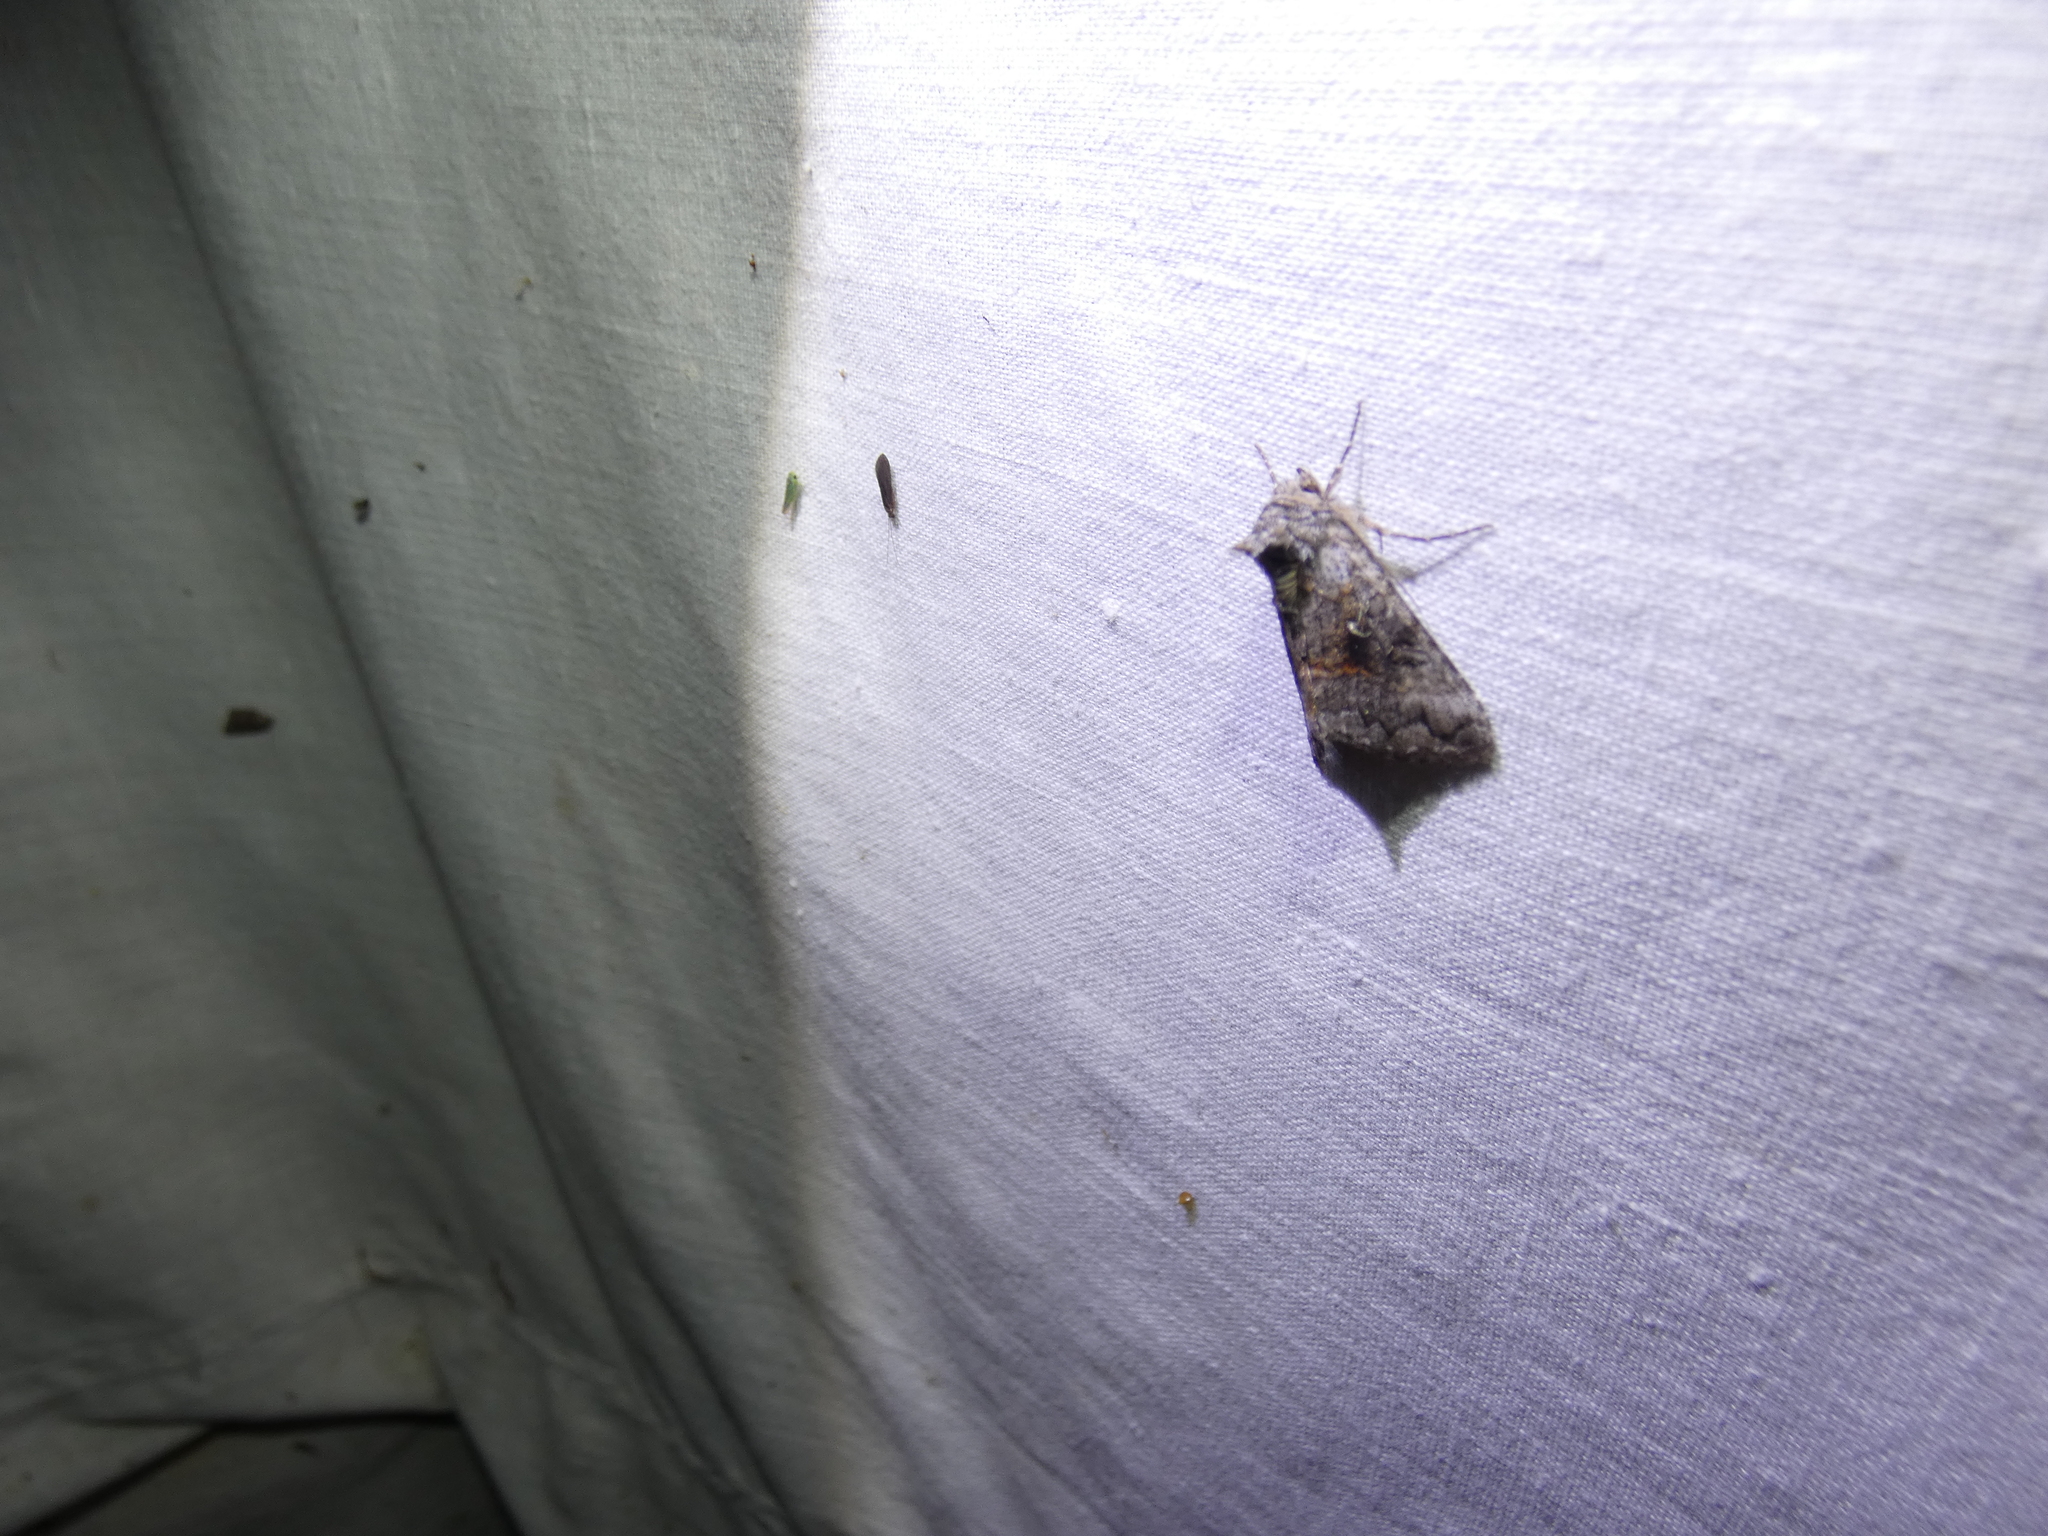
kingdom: Animalia
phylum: Arthropoda
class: Insecta
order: Lepidoptera
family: Noctuidae
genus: Syngrapha
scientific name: Syngrapha interrogationis
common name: Scarce silver y
